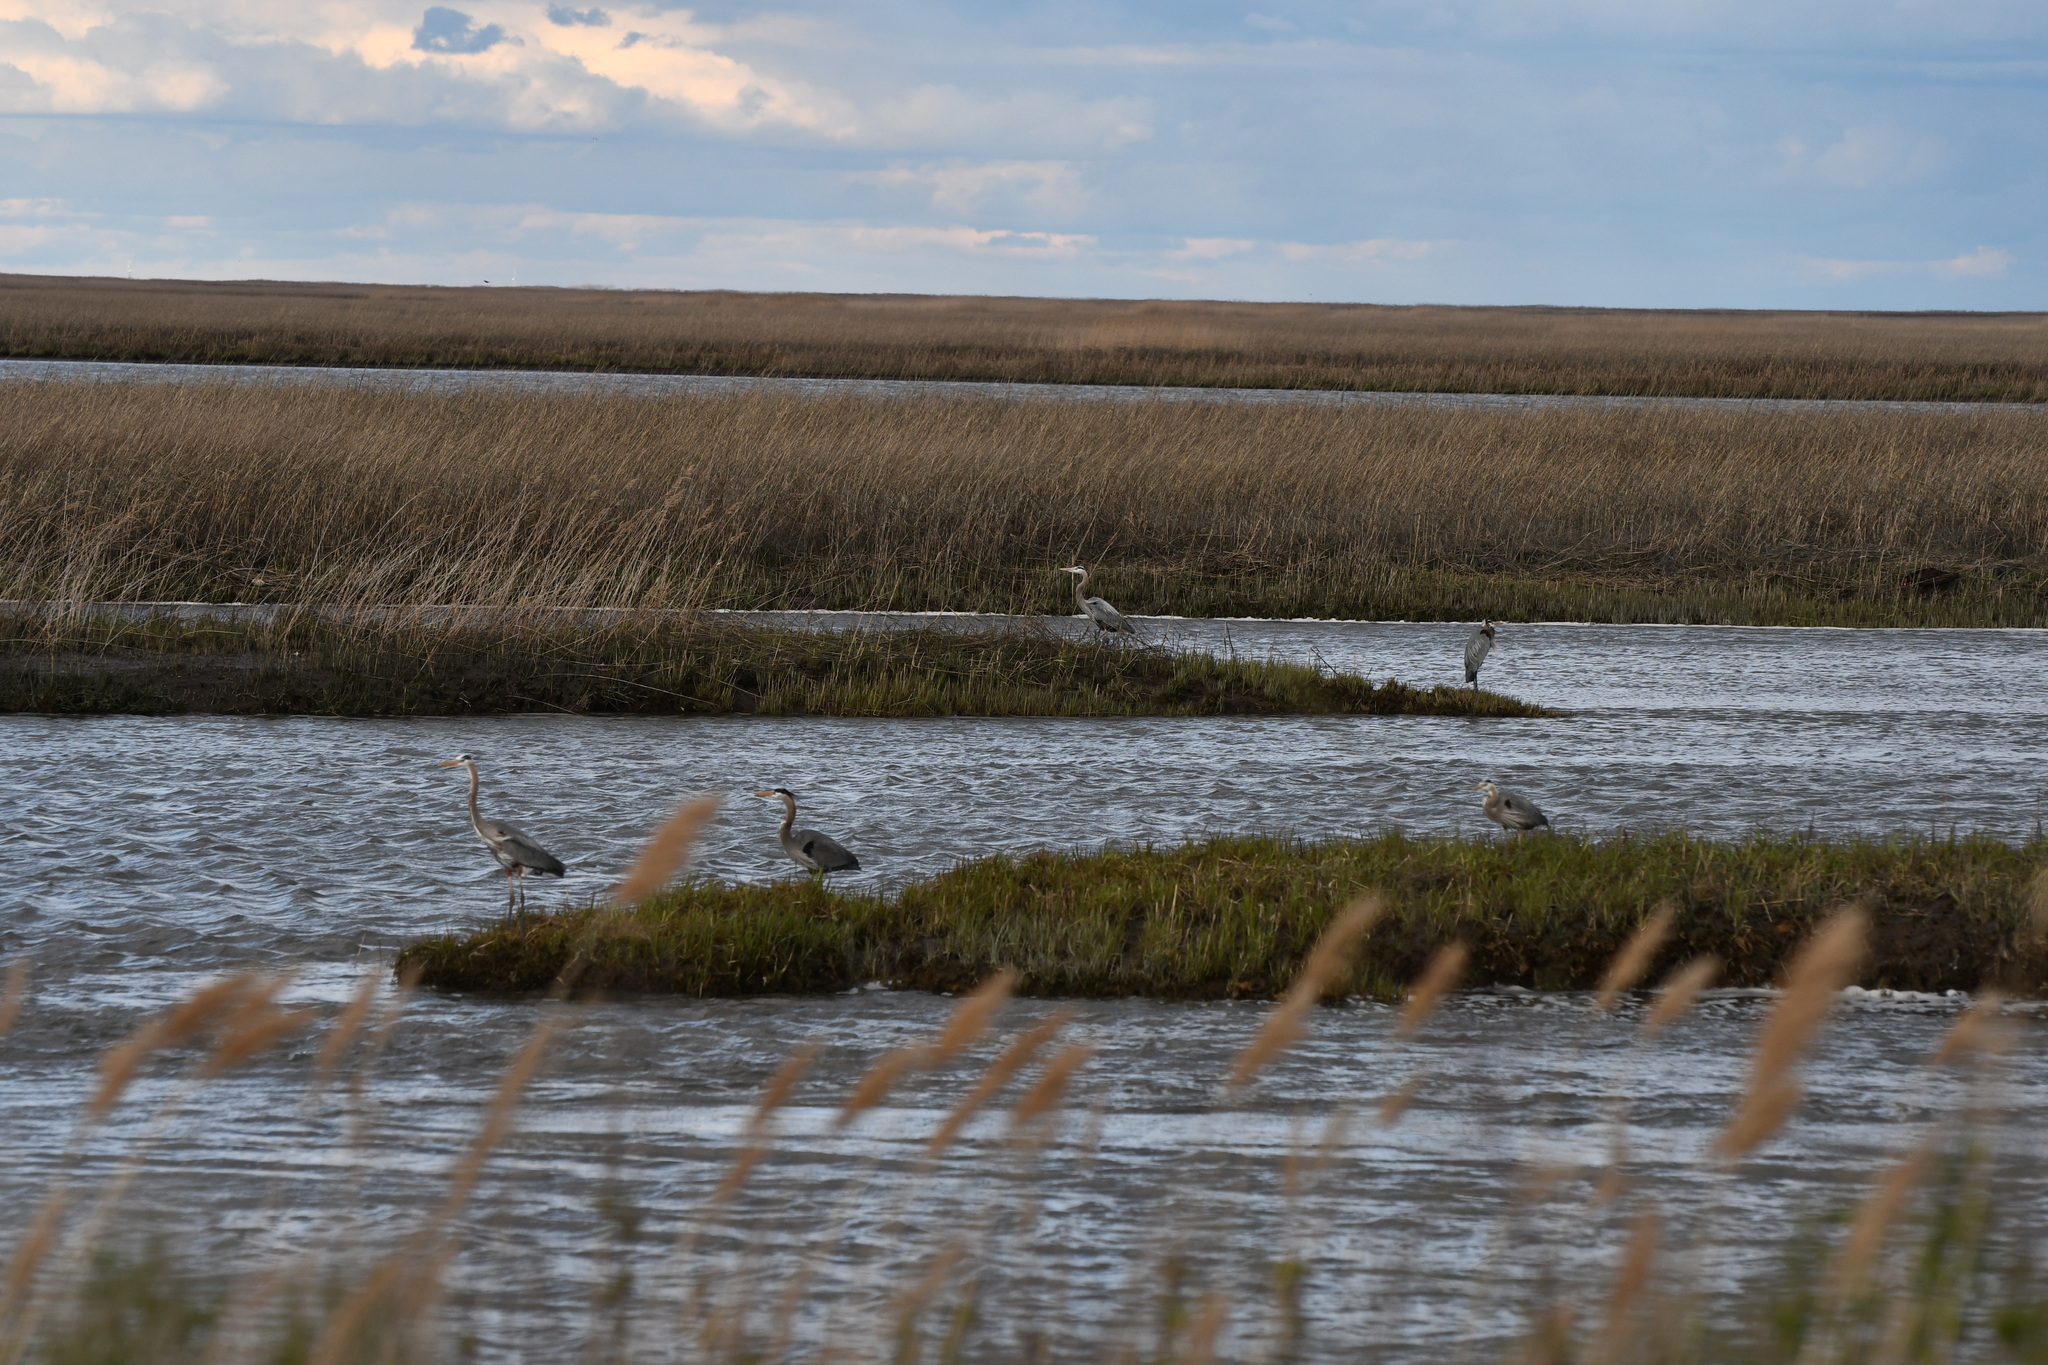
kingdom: Animalia
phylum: Chordata
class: Aves
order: Pelecaniformes
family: Ardeidae
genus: Ardea
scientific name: Ardea herodias
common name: Great blue heron
